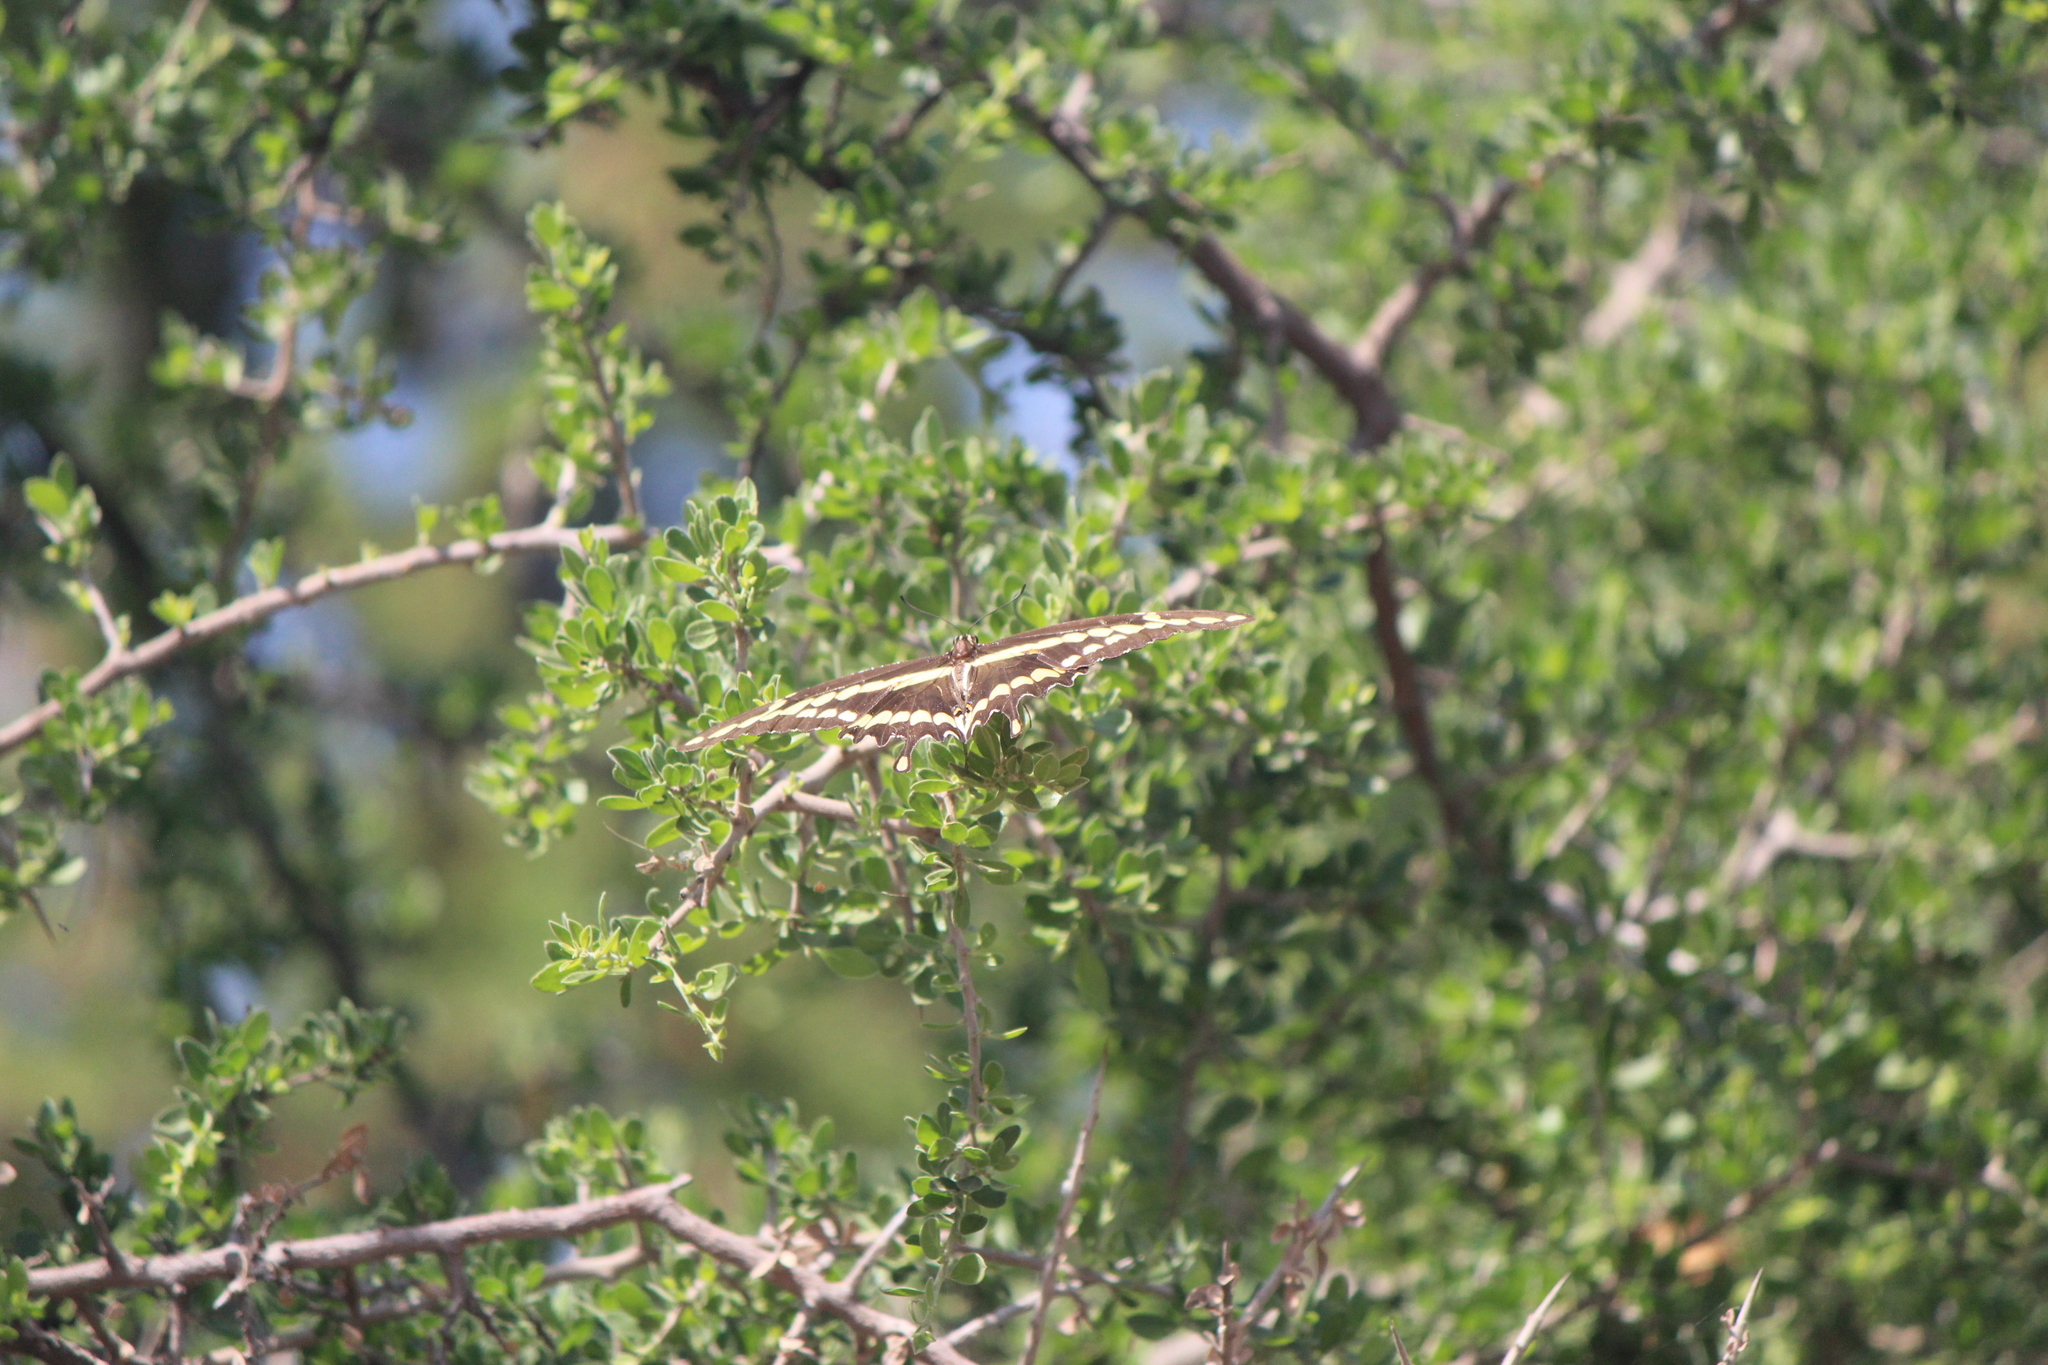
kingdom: Animalia
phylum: Arthropoda
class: Insecta
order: Lepidoptera
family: Papilionidae
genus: Papilio
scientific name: Papilio rumiko
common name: Western giant swallowtail
